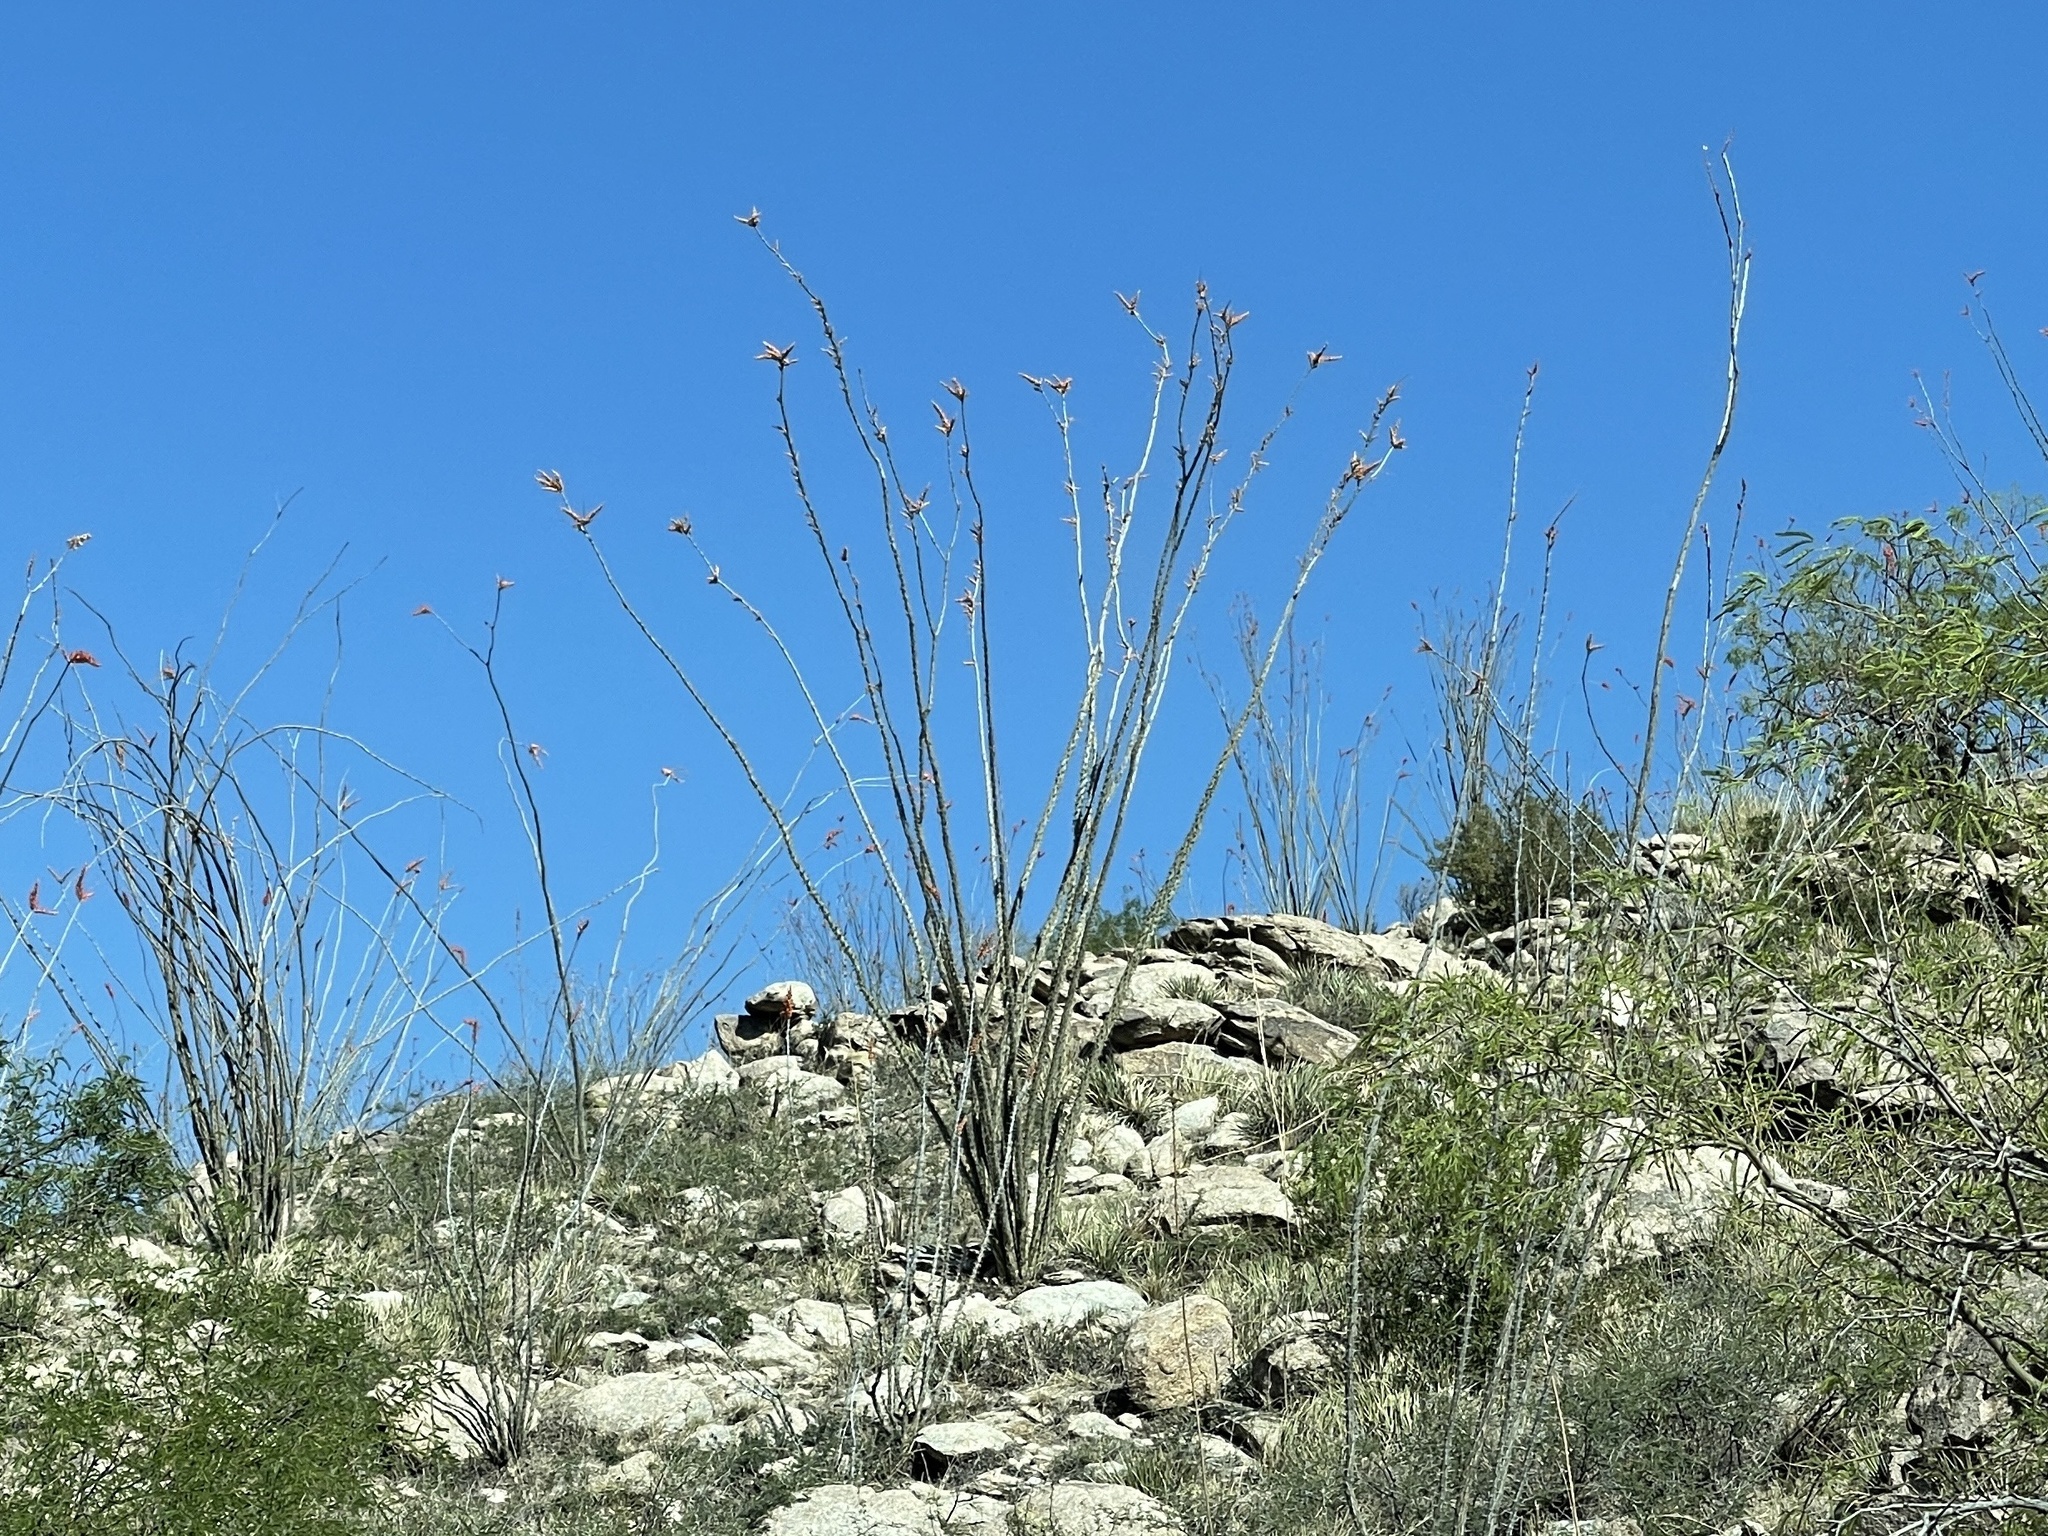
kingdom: Plantae
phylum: Tracheophyta
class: Magnoliopsida
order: Ericales
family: Fouquieriaceae
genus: Fouquieria
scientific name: Fouquieria splendens
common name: Vine-cactus
